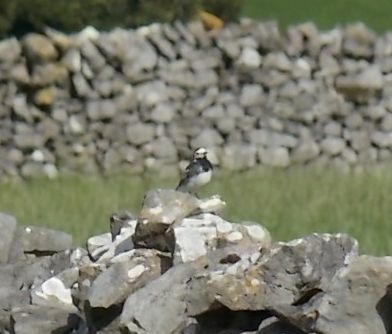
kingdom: Animalia
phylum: Chordata
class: Aves
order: Passeriformes
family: Motacillidae
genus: Motacilla
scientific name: Motacilla alba
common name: White wagtail
